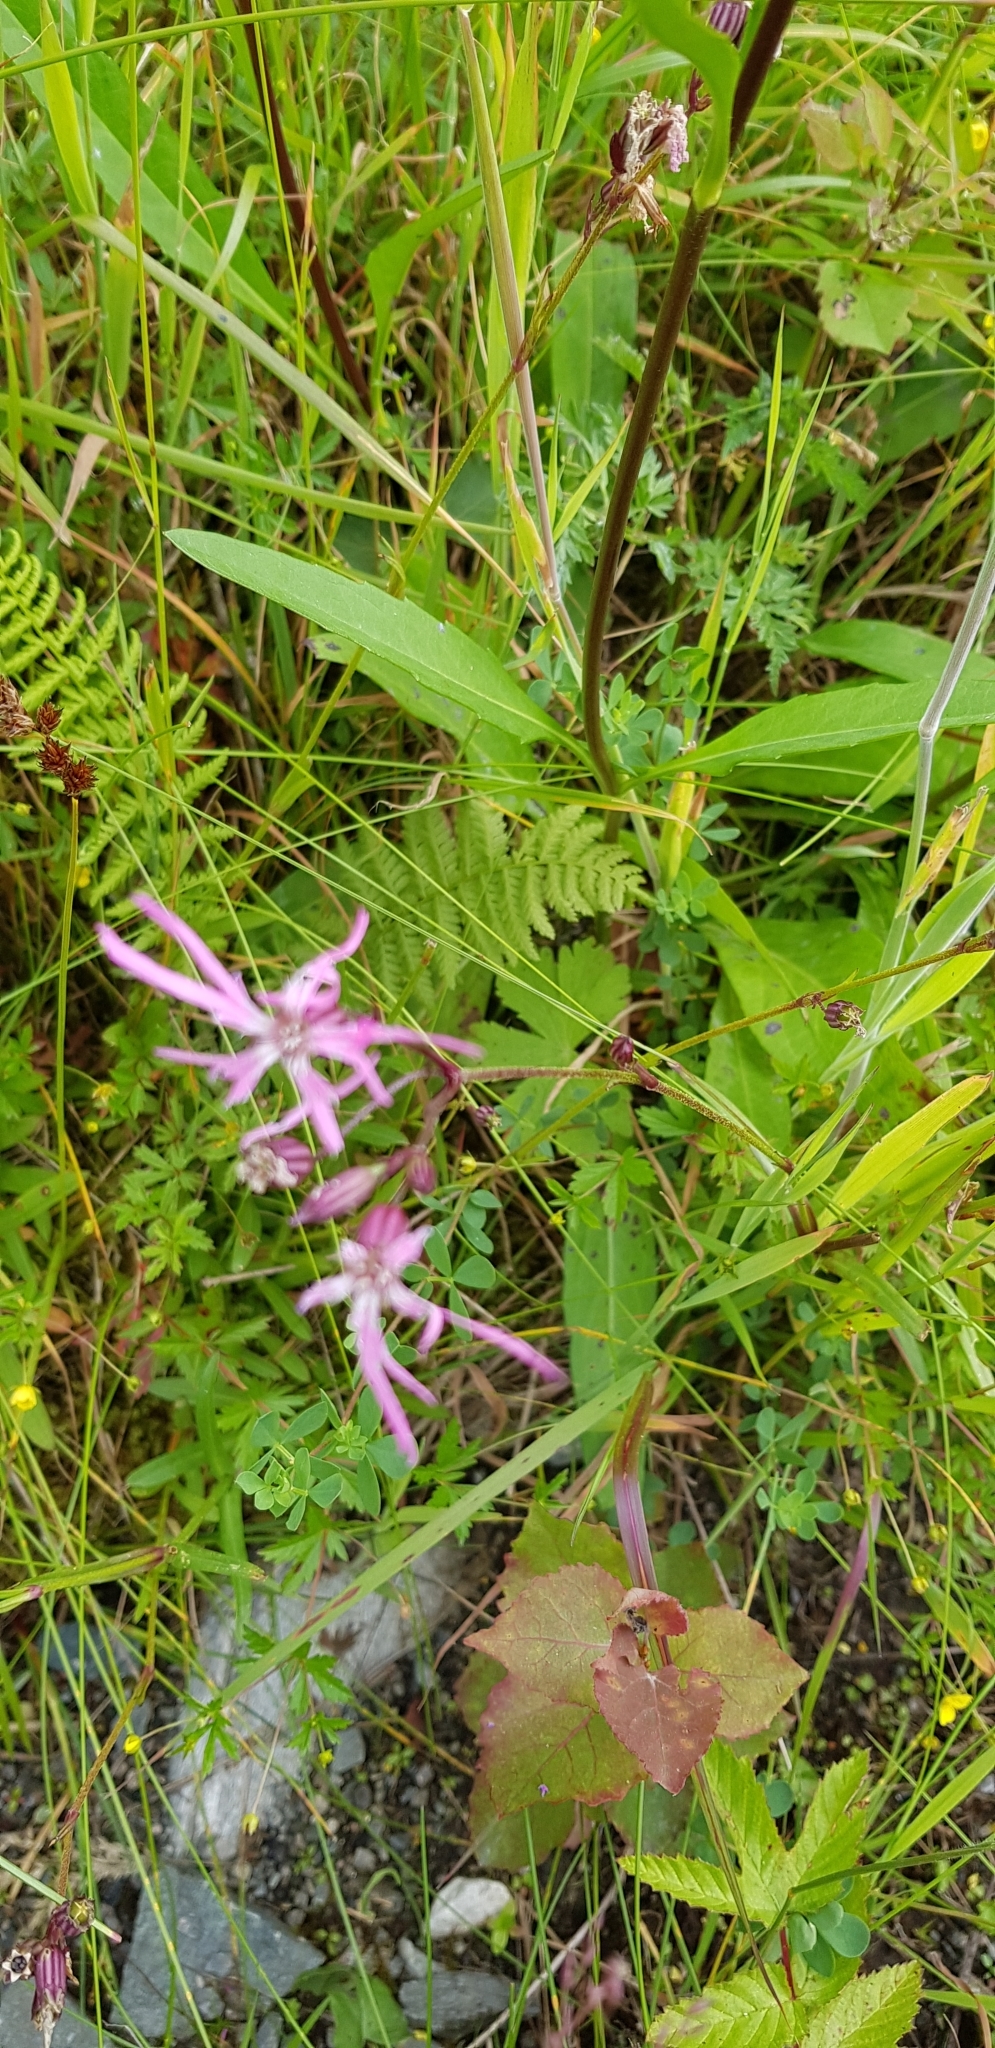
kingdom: Plantae
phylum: Tracheophyta
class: Magnoliopsida
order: Caryophyllales
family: Caryophyllaceae
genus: Silene
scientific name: Silene flos-cuculi
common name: Ragged-robin
